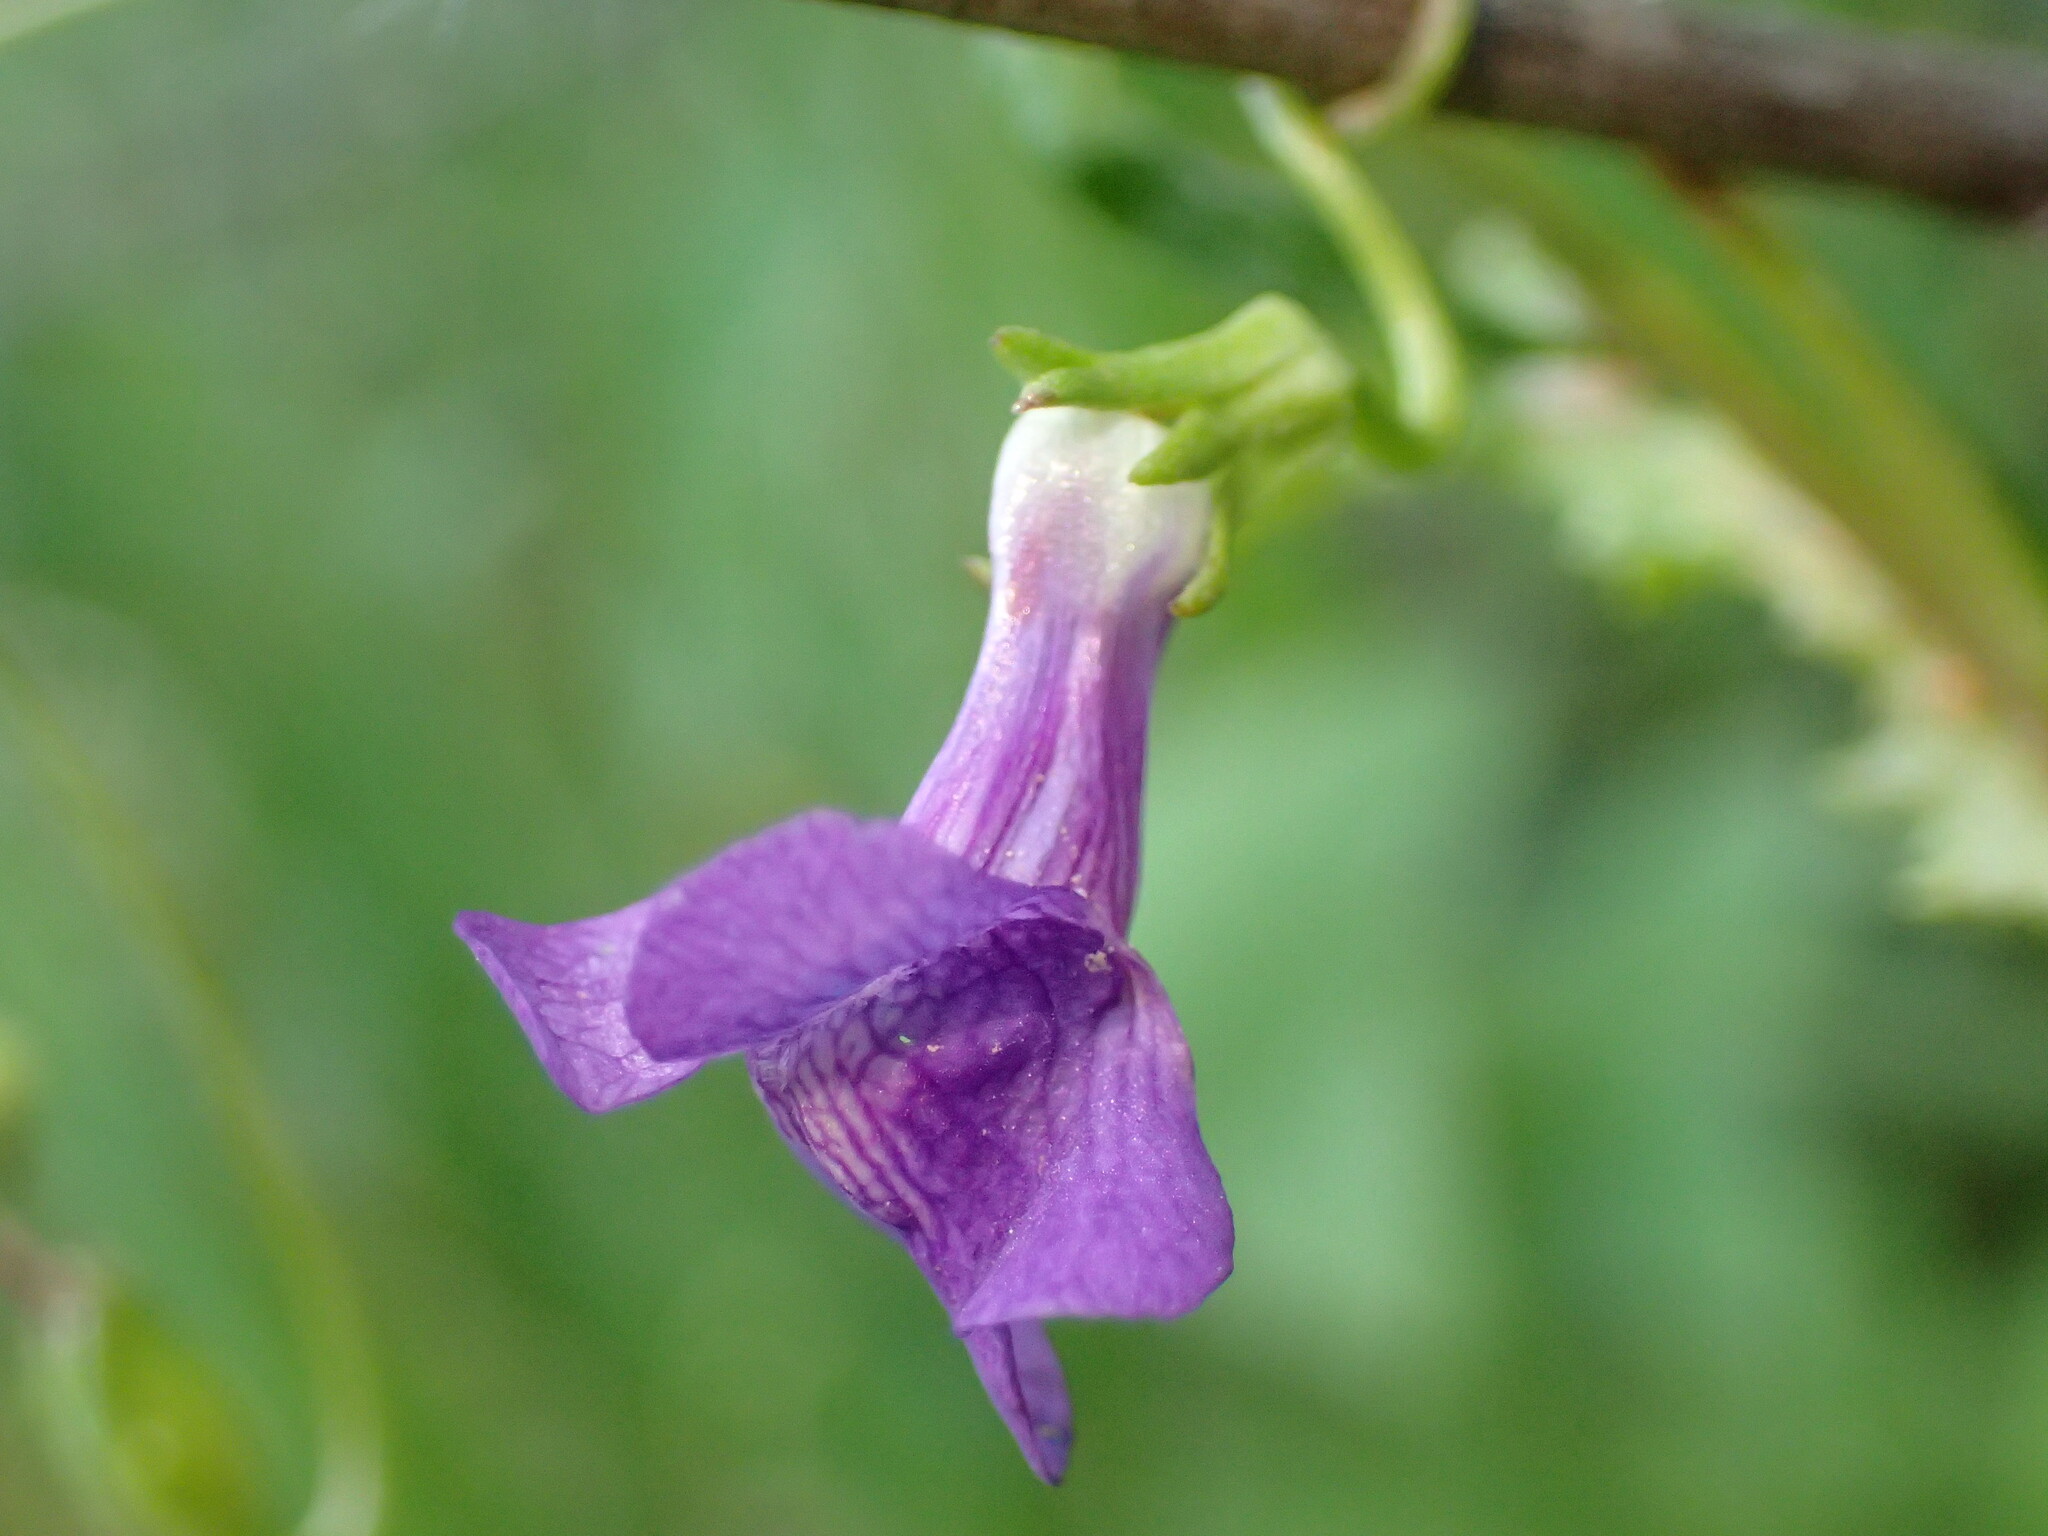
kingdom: Plantae
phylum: Tracheophyta
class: Magnoliopsida
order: Lamiales
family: Plantaginaceae
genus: Neogaerrhinum
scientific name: Neogaerrhinum strictum
